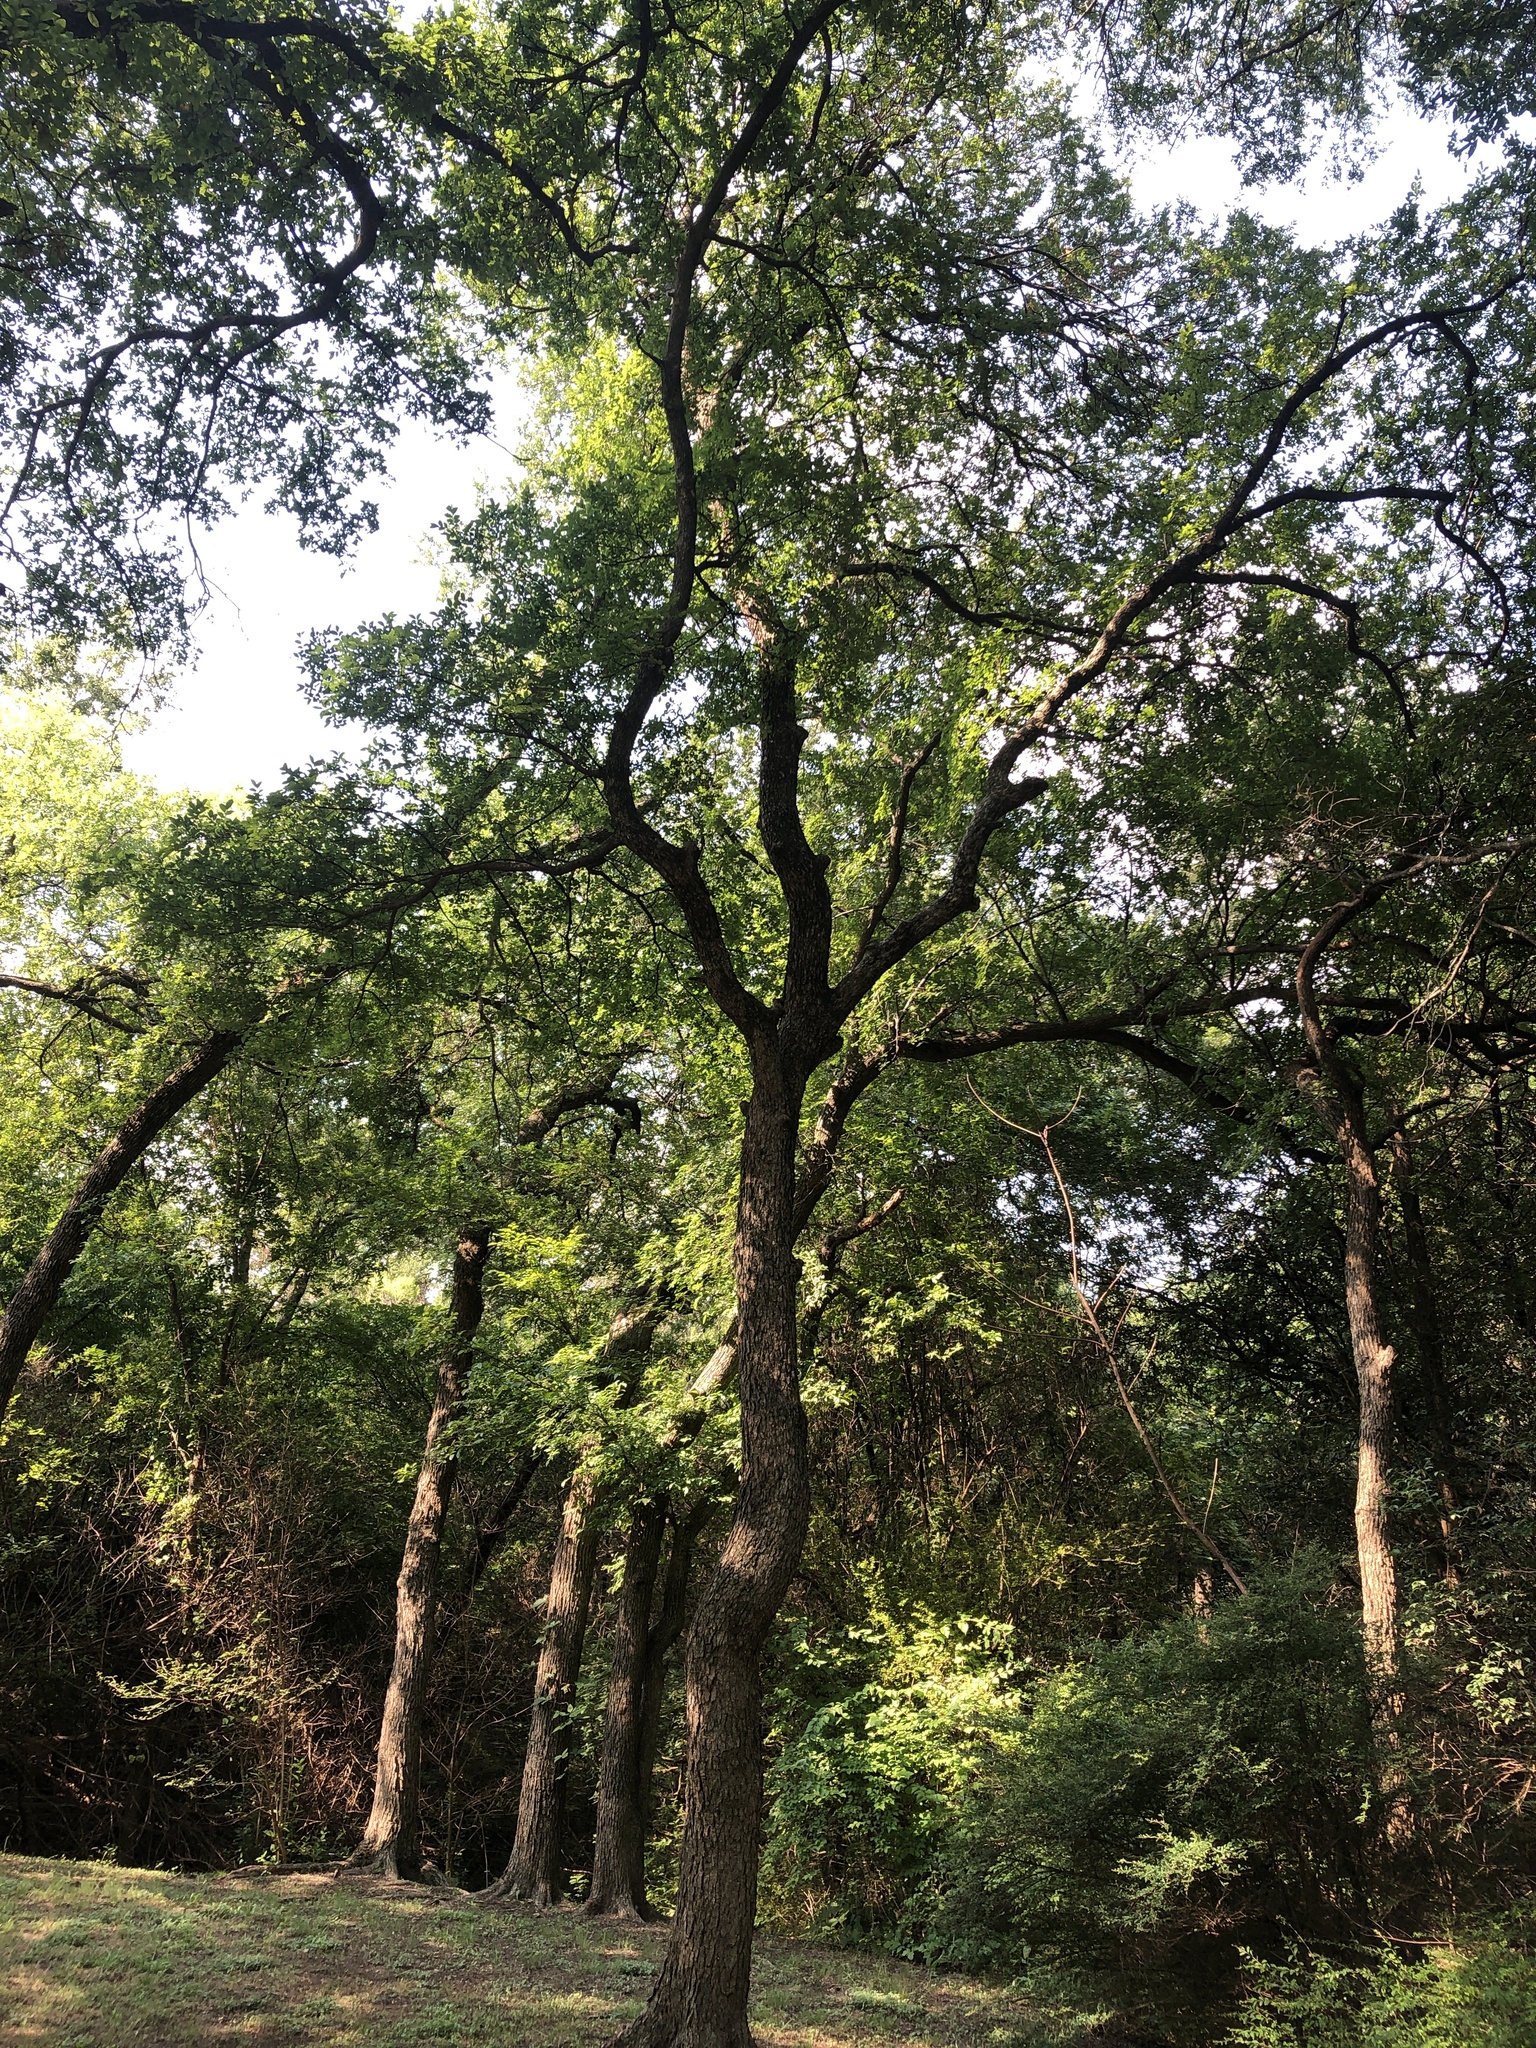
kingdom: Plantae
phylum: Tracheophyta
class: Magnoliopsida
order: Rosales
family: Ulmaceae
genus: Ulmus
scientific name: Ulmus crassifolia
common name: Basket elm
